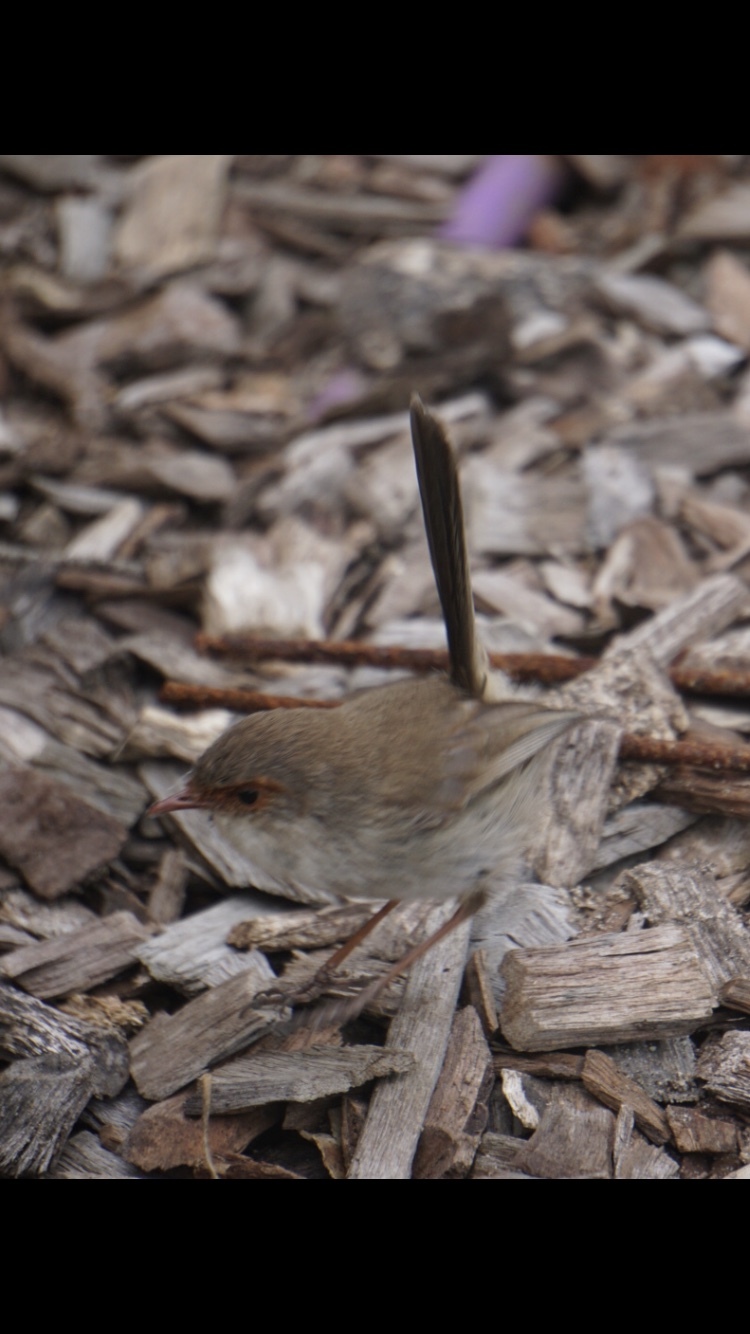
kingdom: Animalia
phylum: Chordata
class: Aves
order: Passeriformes
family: Maluridae
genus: Malurus
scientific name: Malurus cyaneus
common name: Superb fairywren
